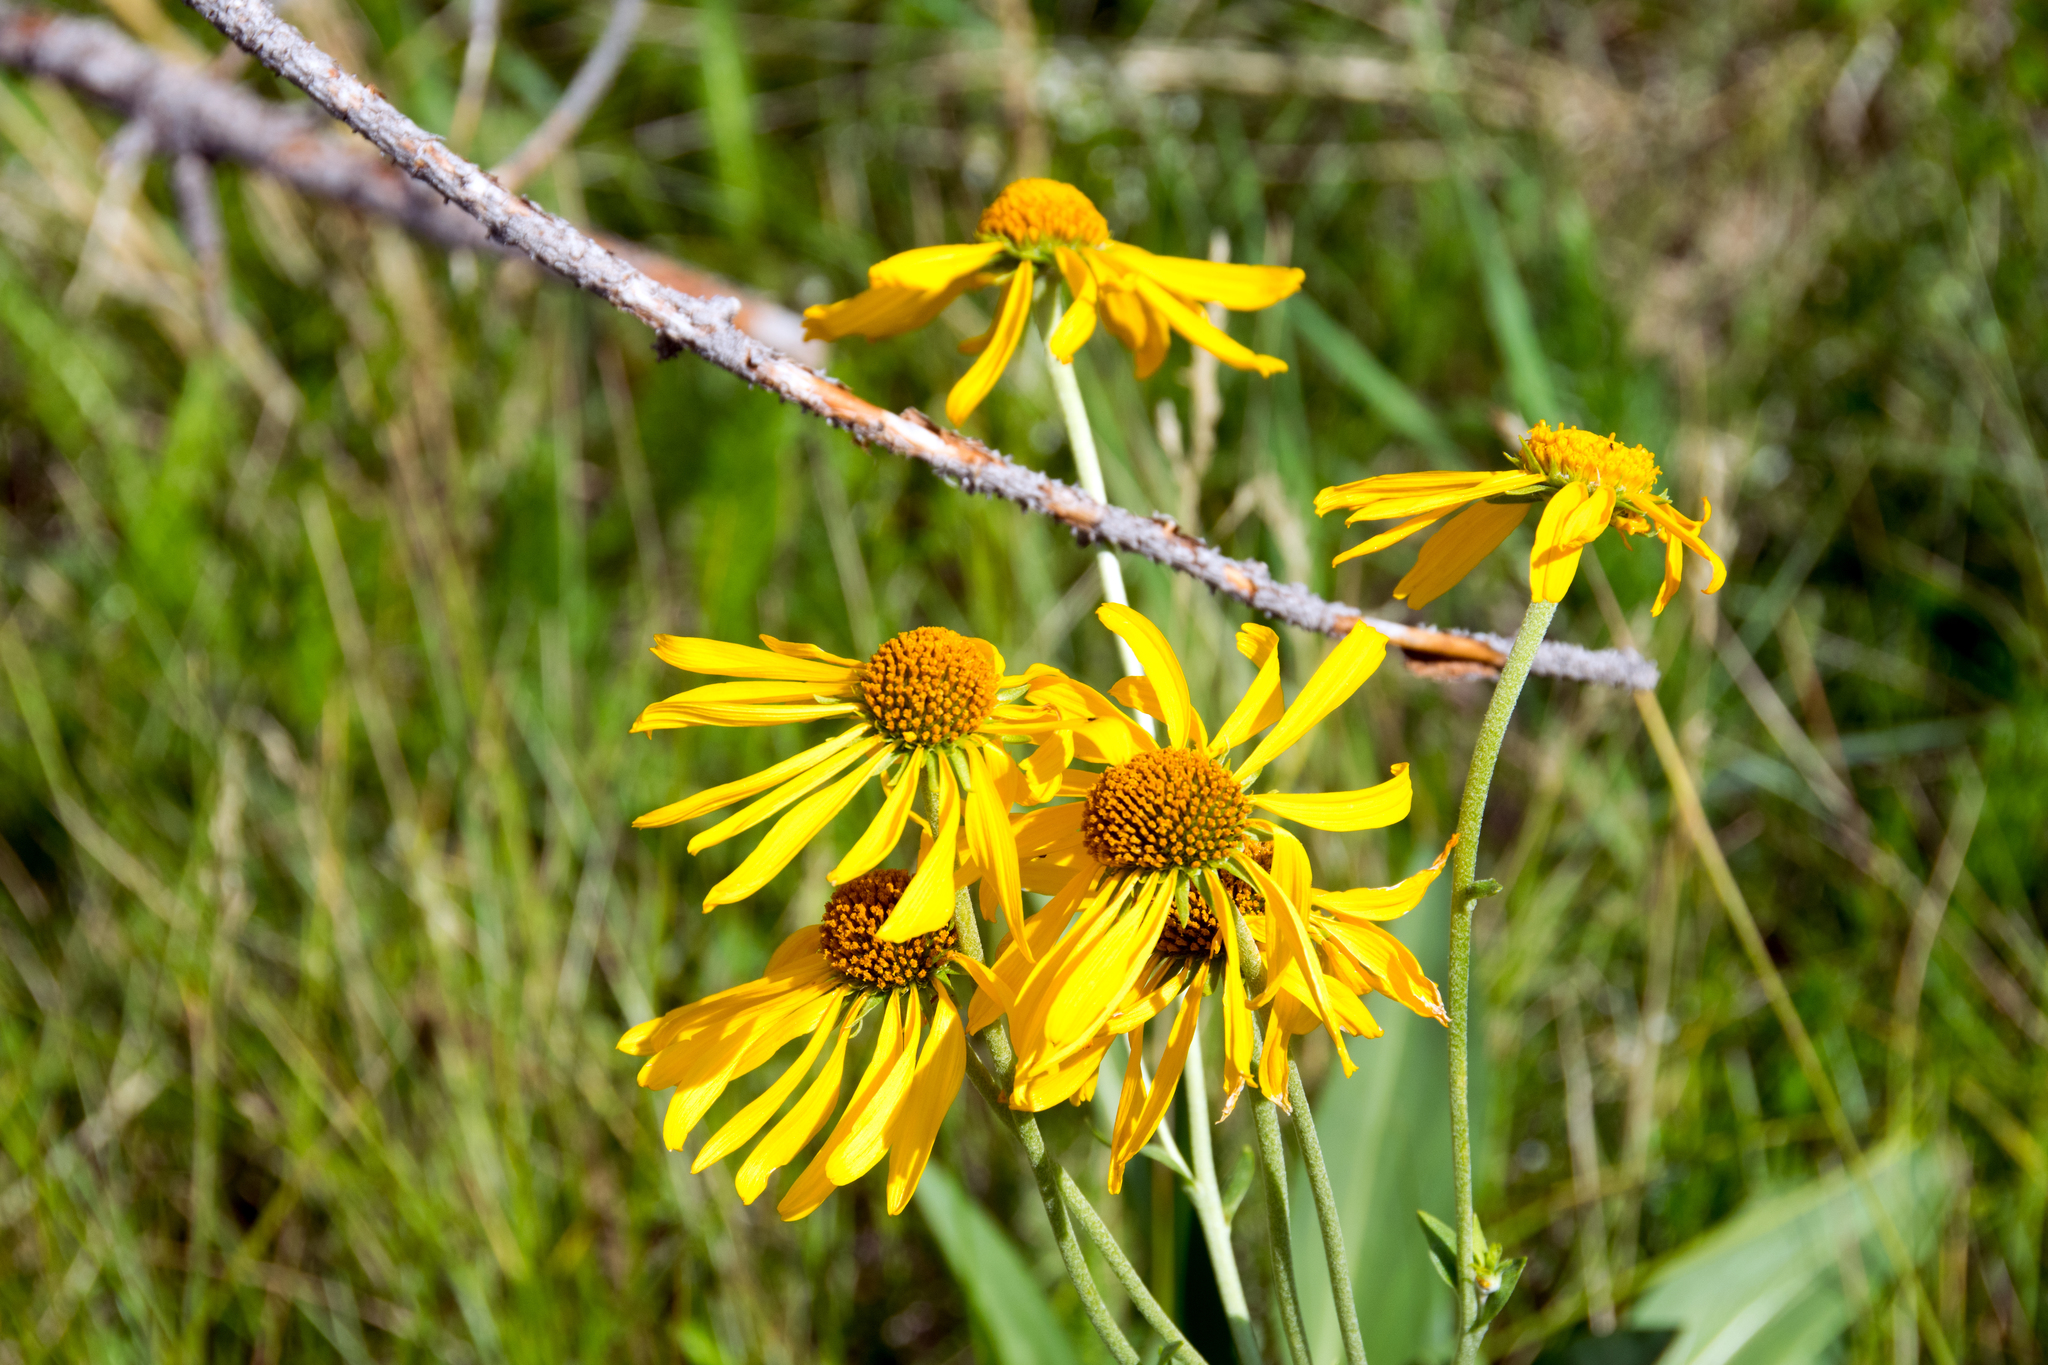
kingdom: Plantae
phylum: Tracheophyta
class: Magnoliopsida
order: Asterales
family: Asteraceae
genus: Hymenoxys
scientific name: Hymenoxys hoopesii
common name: Orange-sneezeweed
